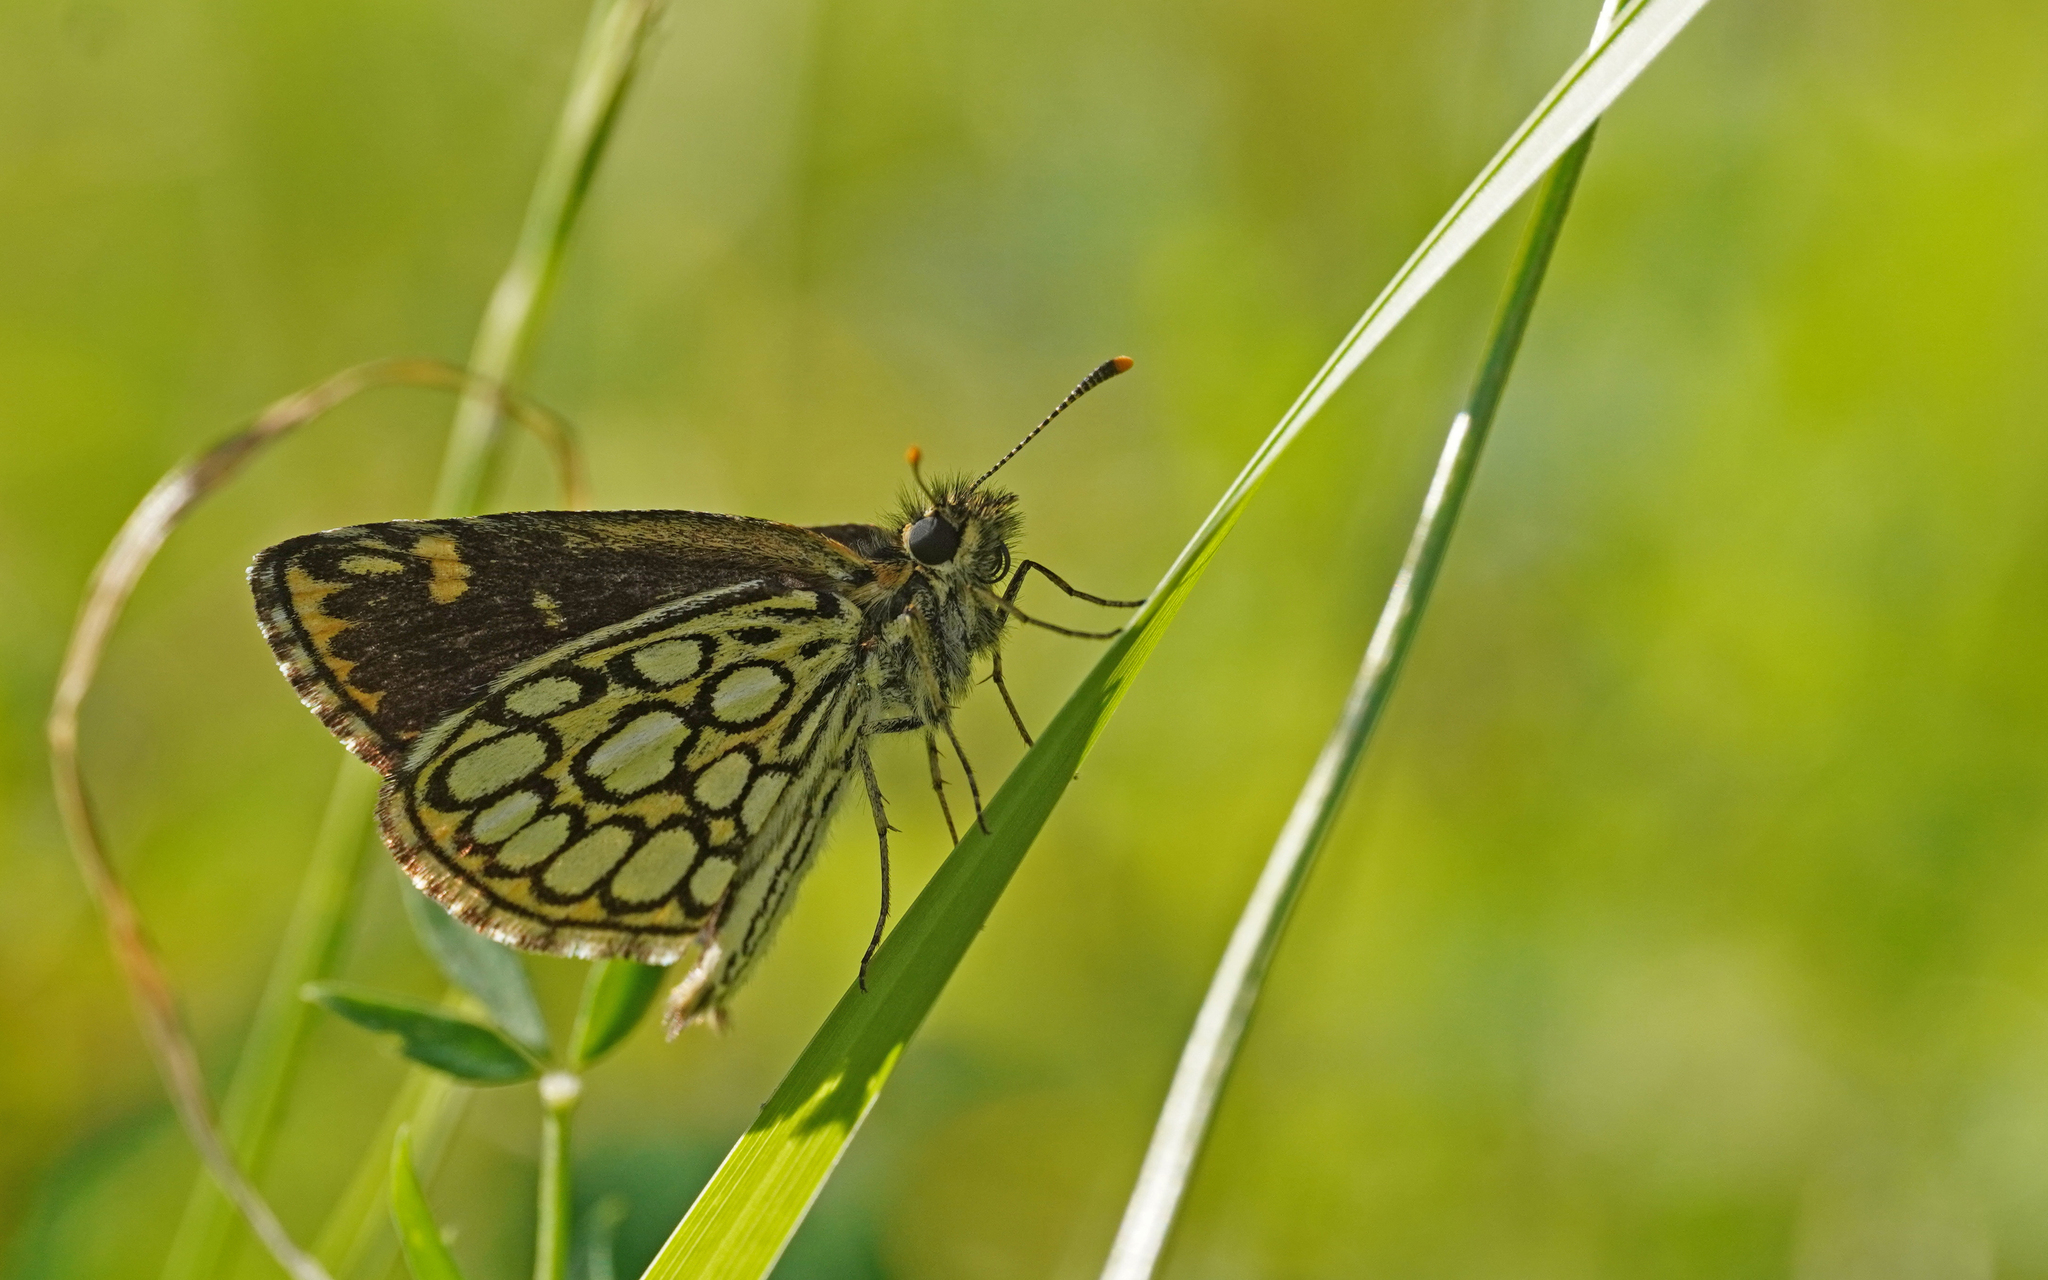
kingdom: Animalia
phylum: Arthropoda
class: Insecta
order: Lepidoptera
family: Hesperiidae
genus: Heteropterus
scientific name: Heteropterus morpheus
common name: Large chequered skipper
